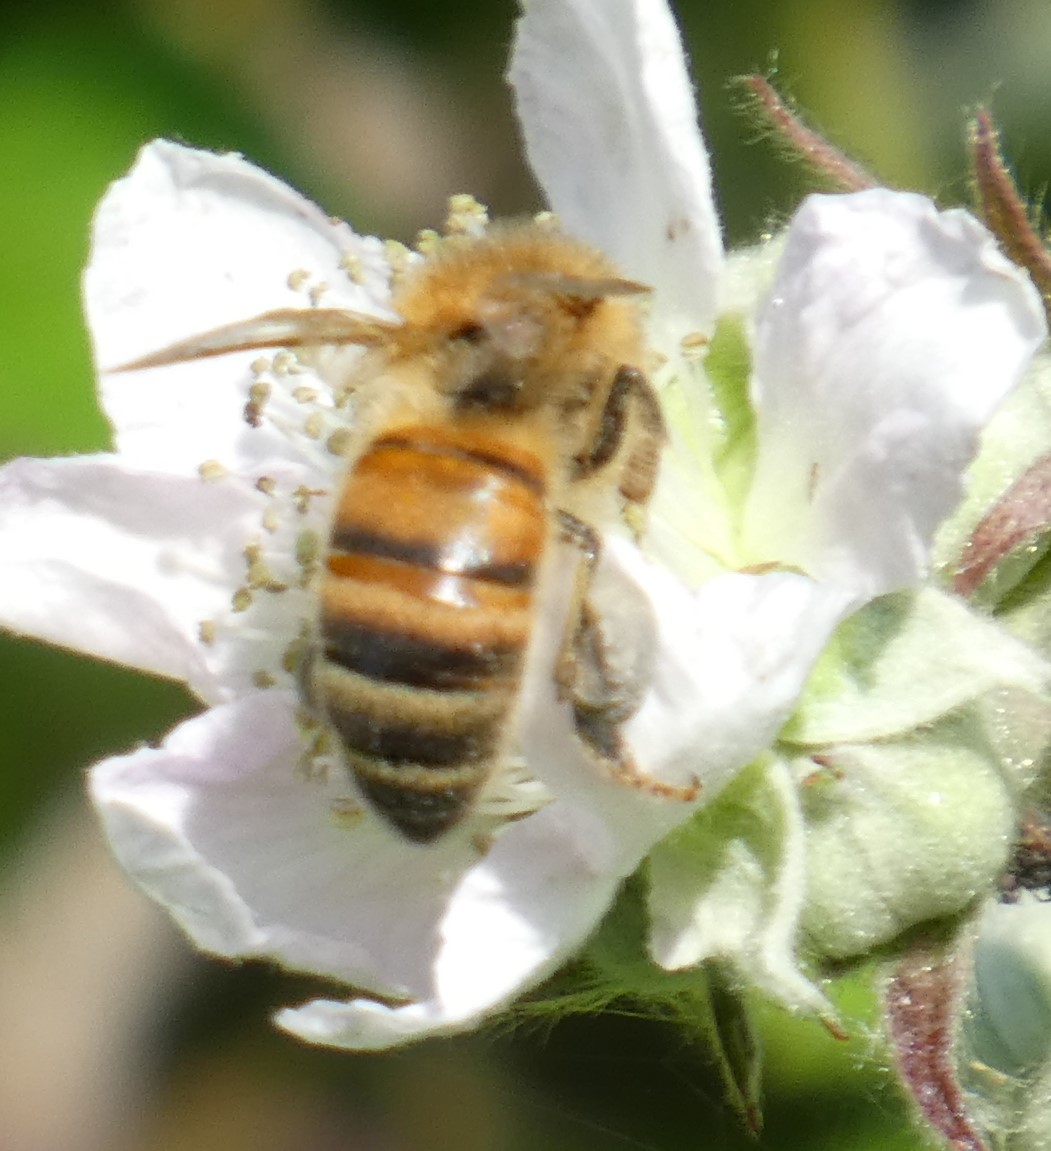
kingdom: Animalia
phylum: Arthropoda
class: Insecta
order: Hymenoptera
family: Apidae
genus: Apis
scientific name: Apis mellifera
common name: Honey bee
